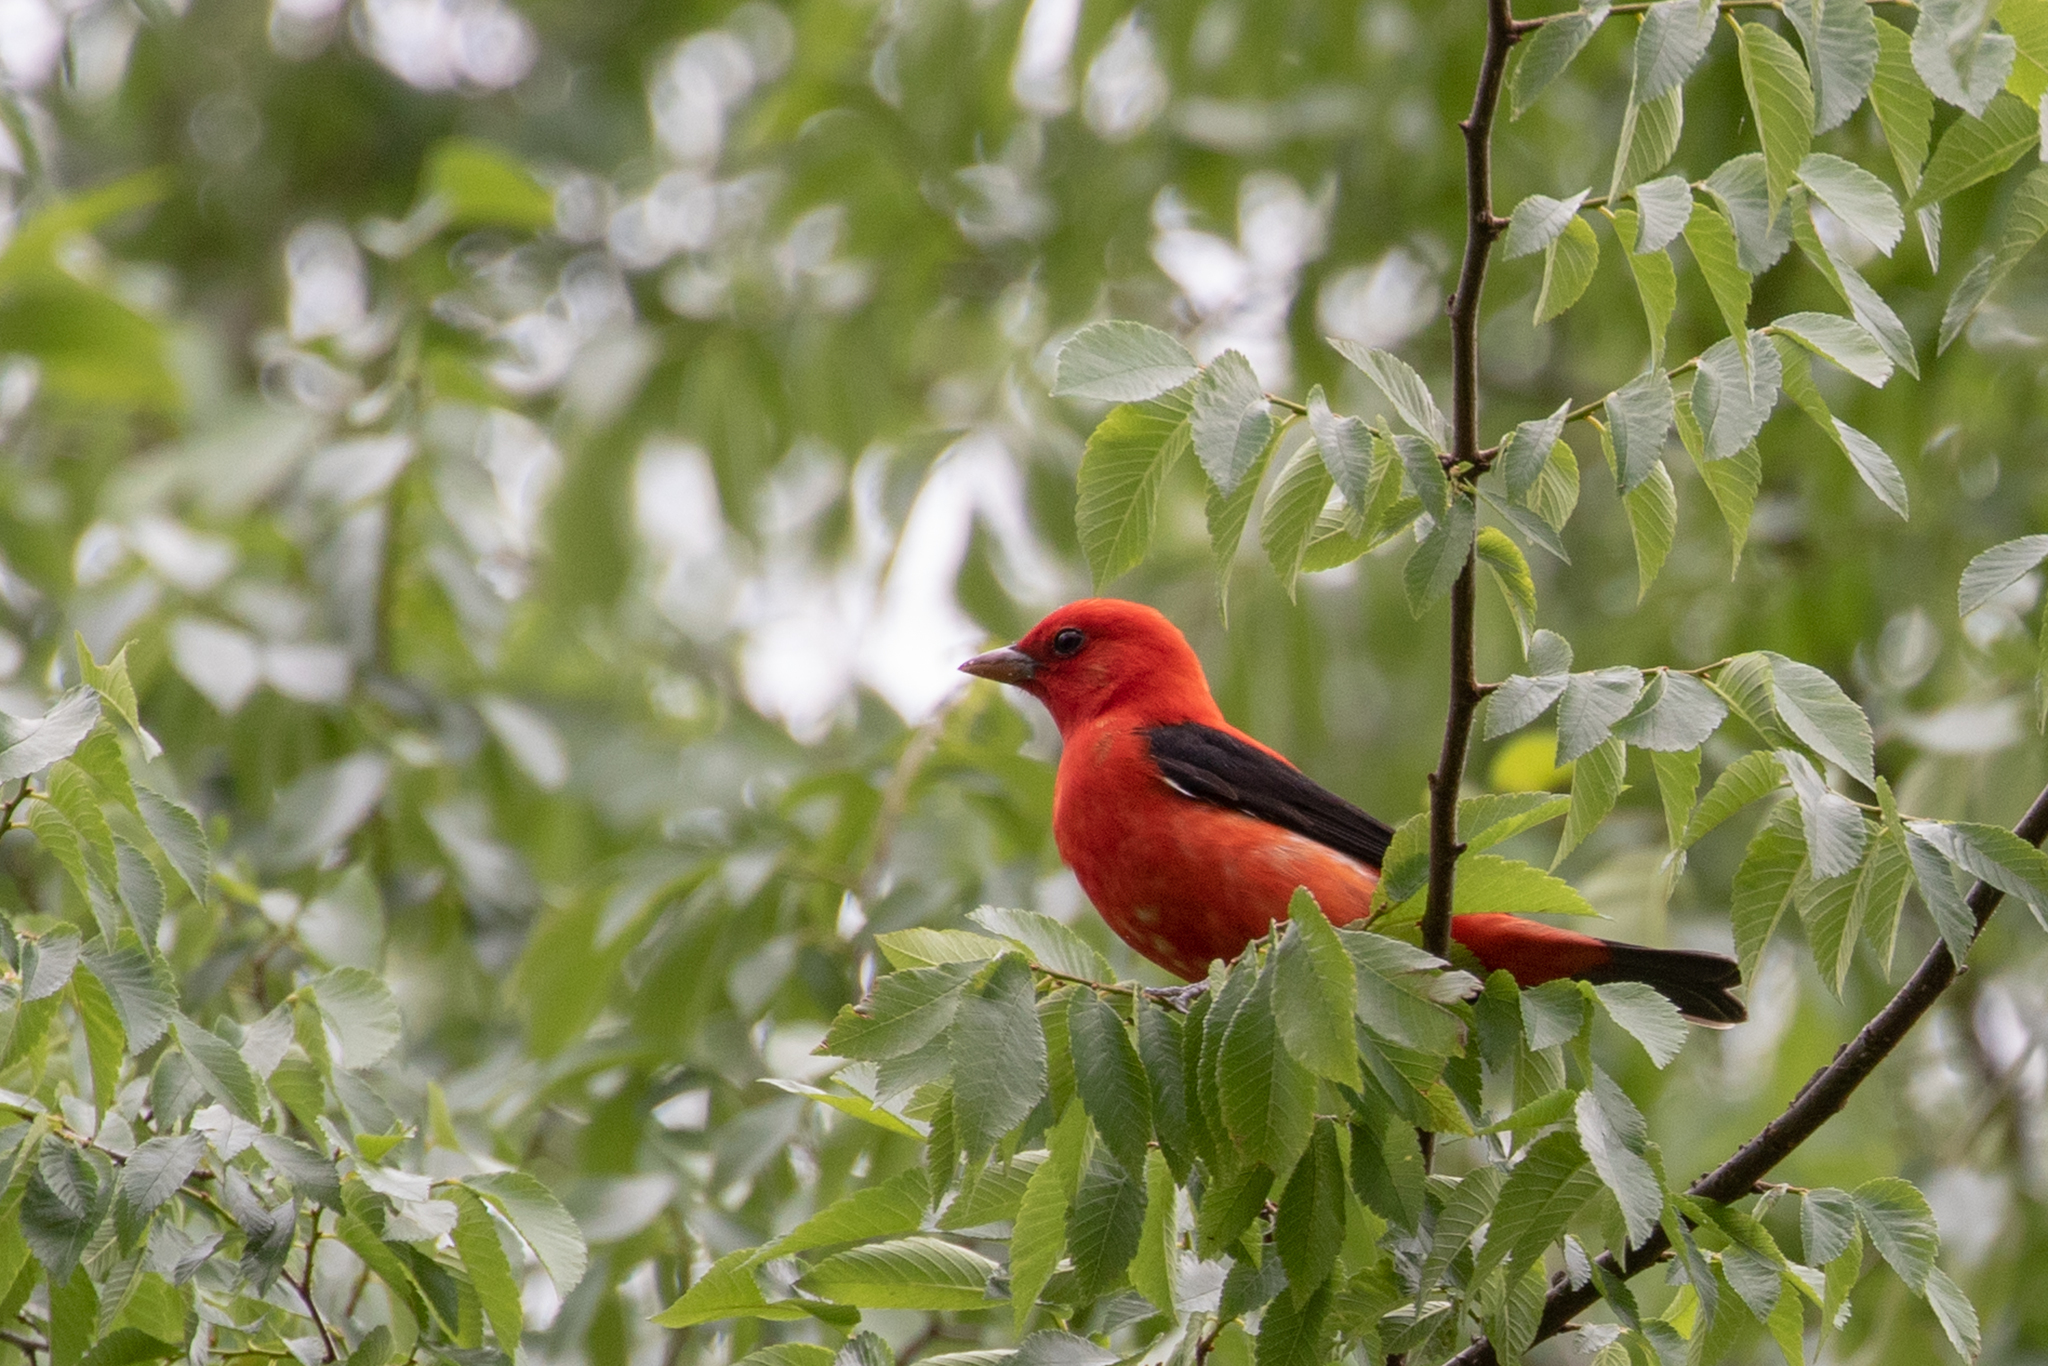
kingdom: Animalia
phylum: Chordata
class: Aves
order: Passeriformes
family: Cardinalidae
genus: Piranga
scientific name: Piranga olivacea
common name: Scarlet tanager
